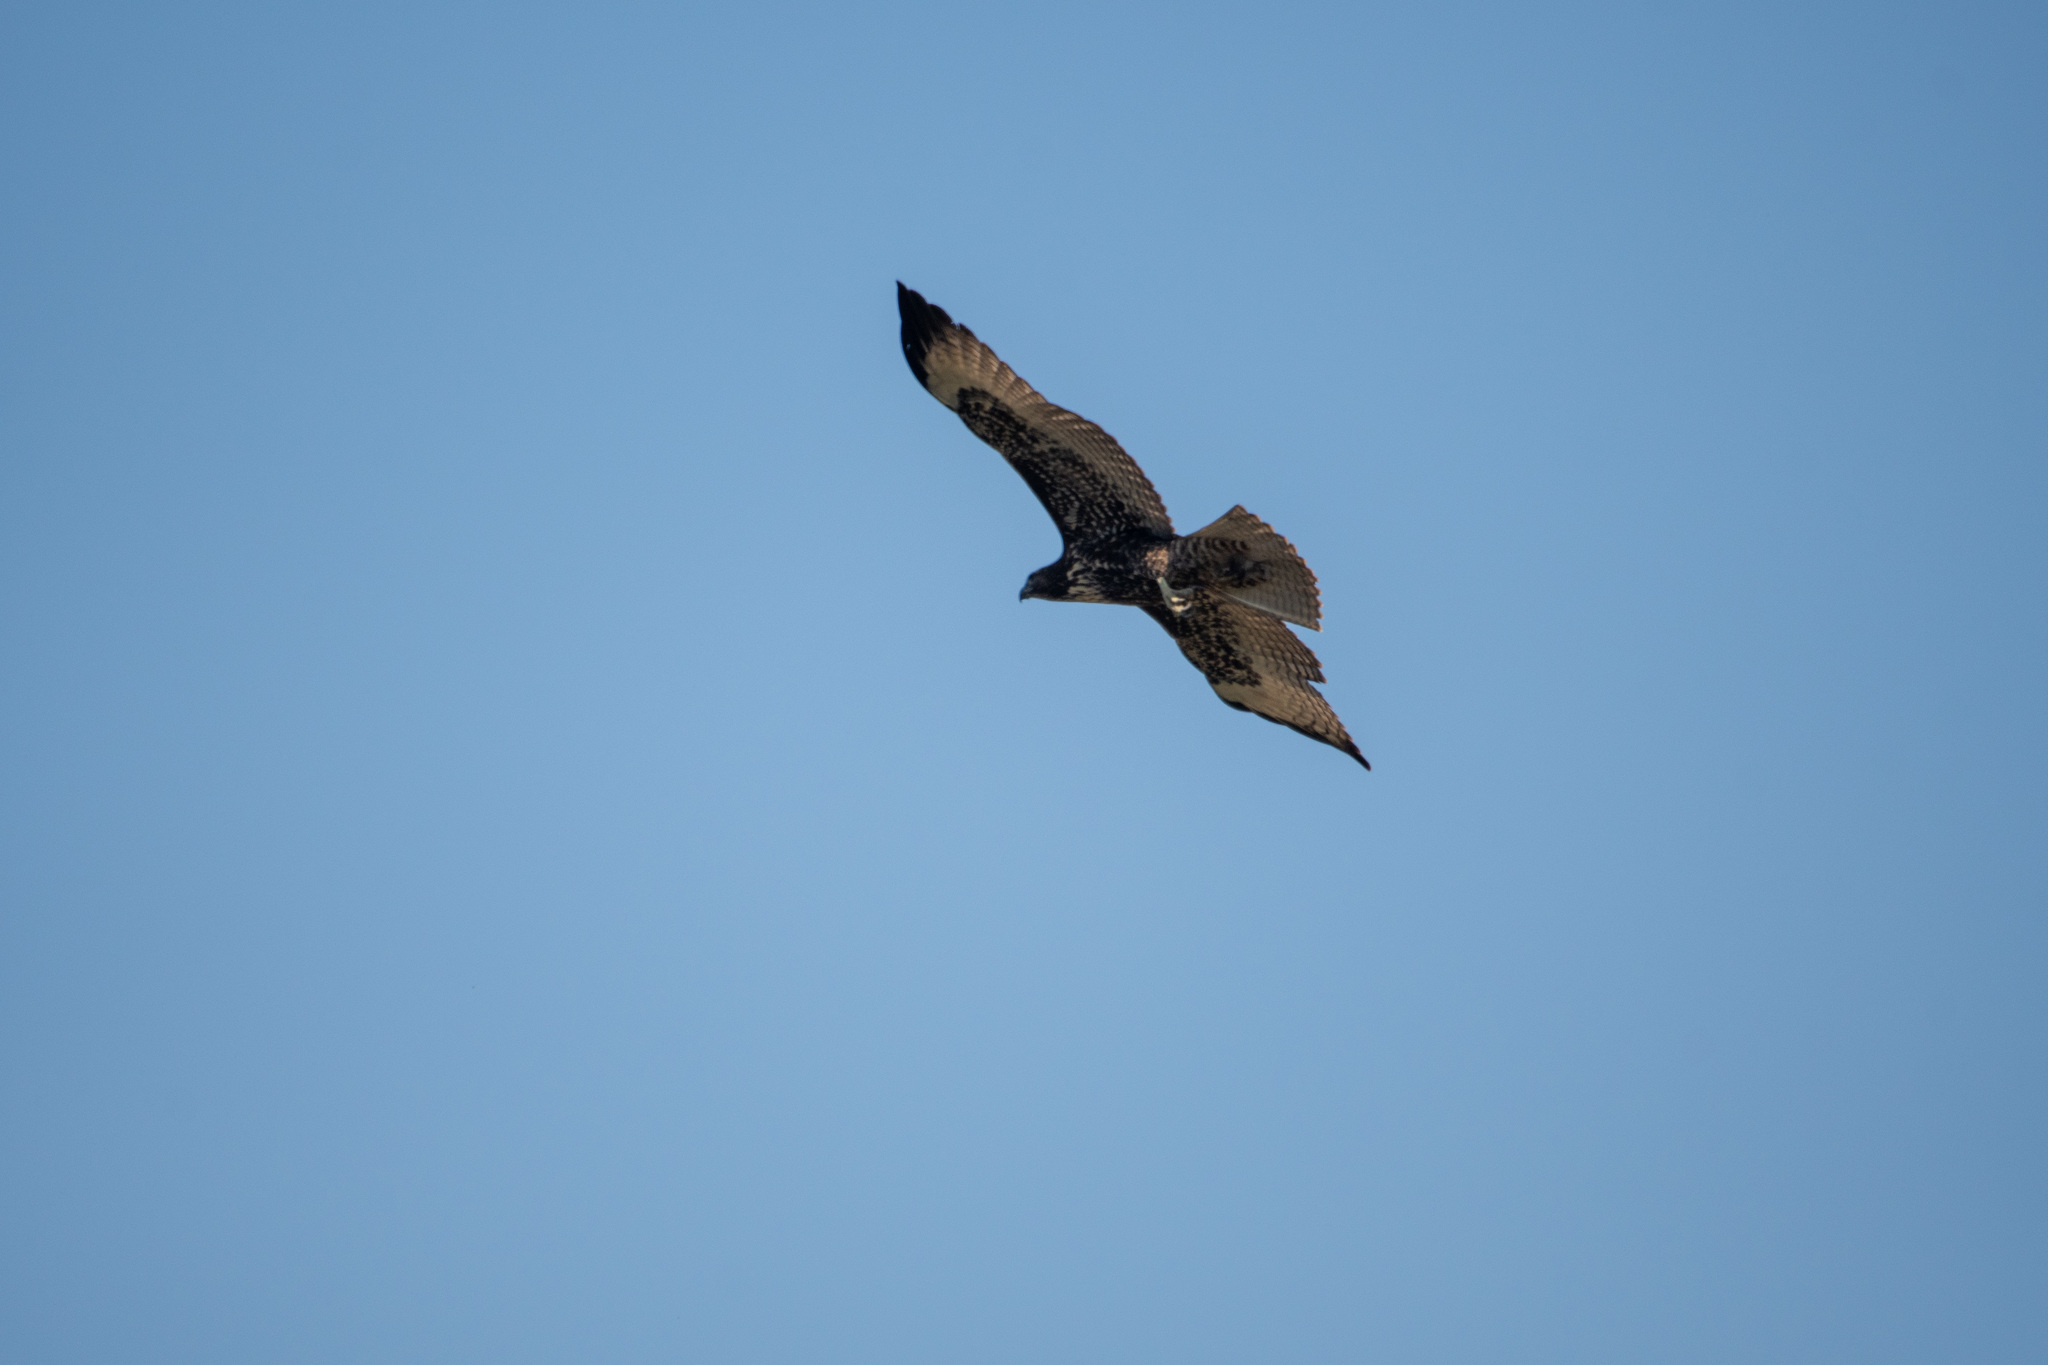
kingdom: Animalia
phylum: Chordata
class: Aves
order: Accipitriformes
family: Accipitridae
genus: Buteo
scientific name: Buteo jamaicensis
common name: Red-tailed hawk
